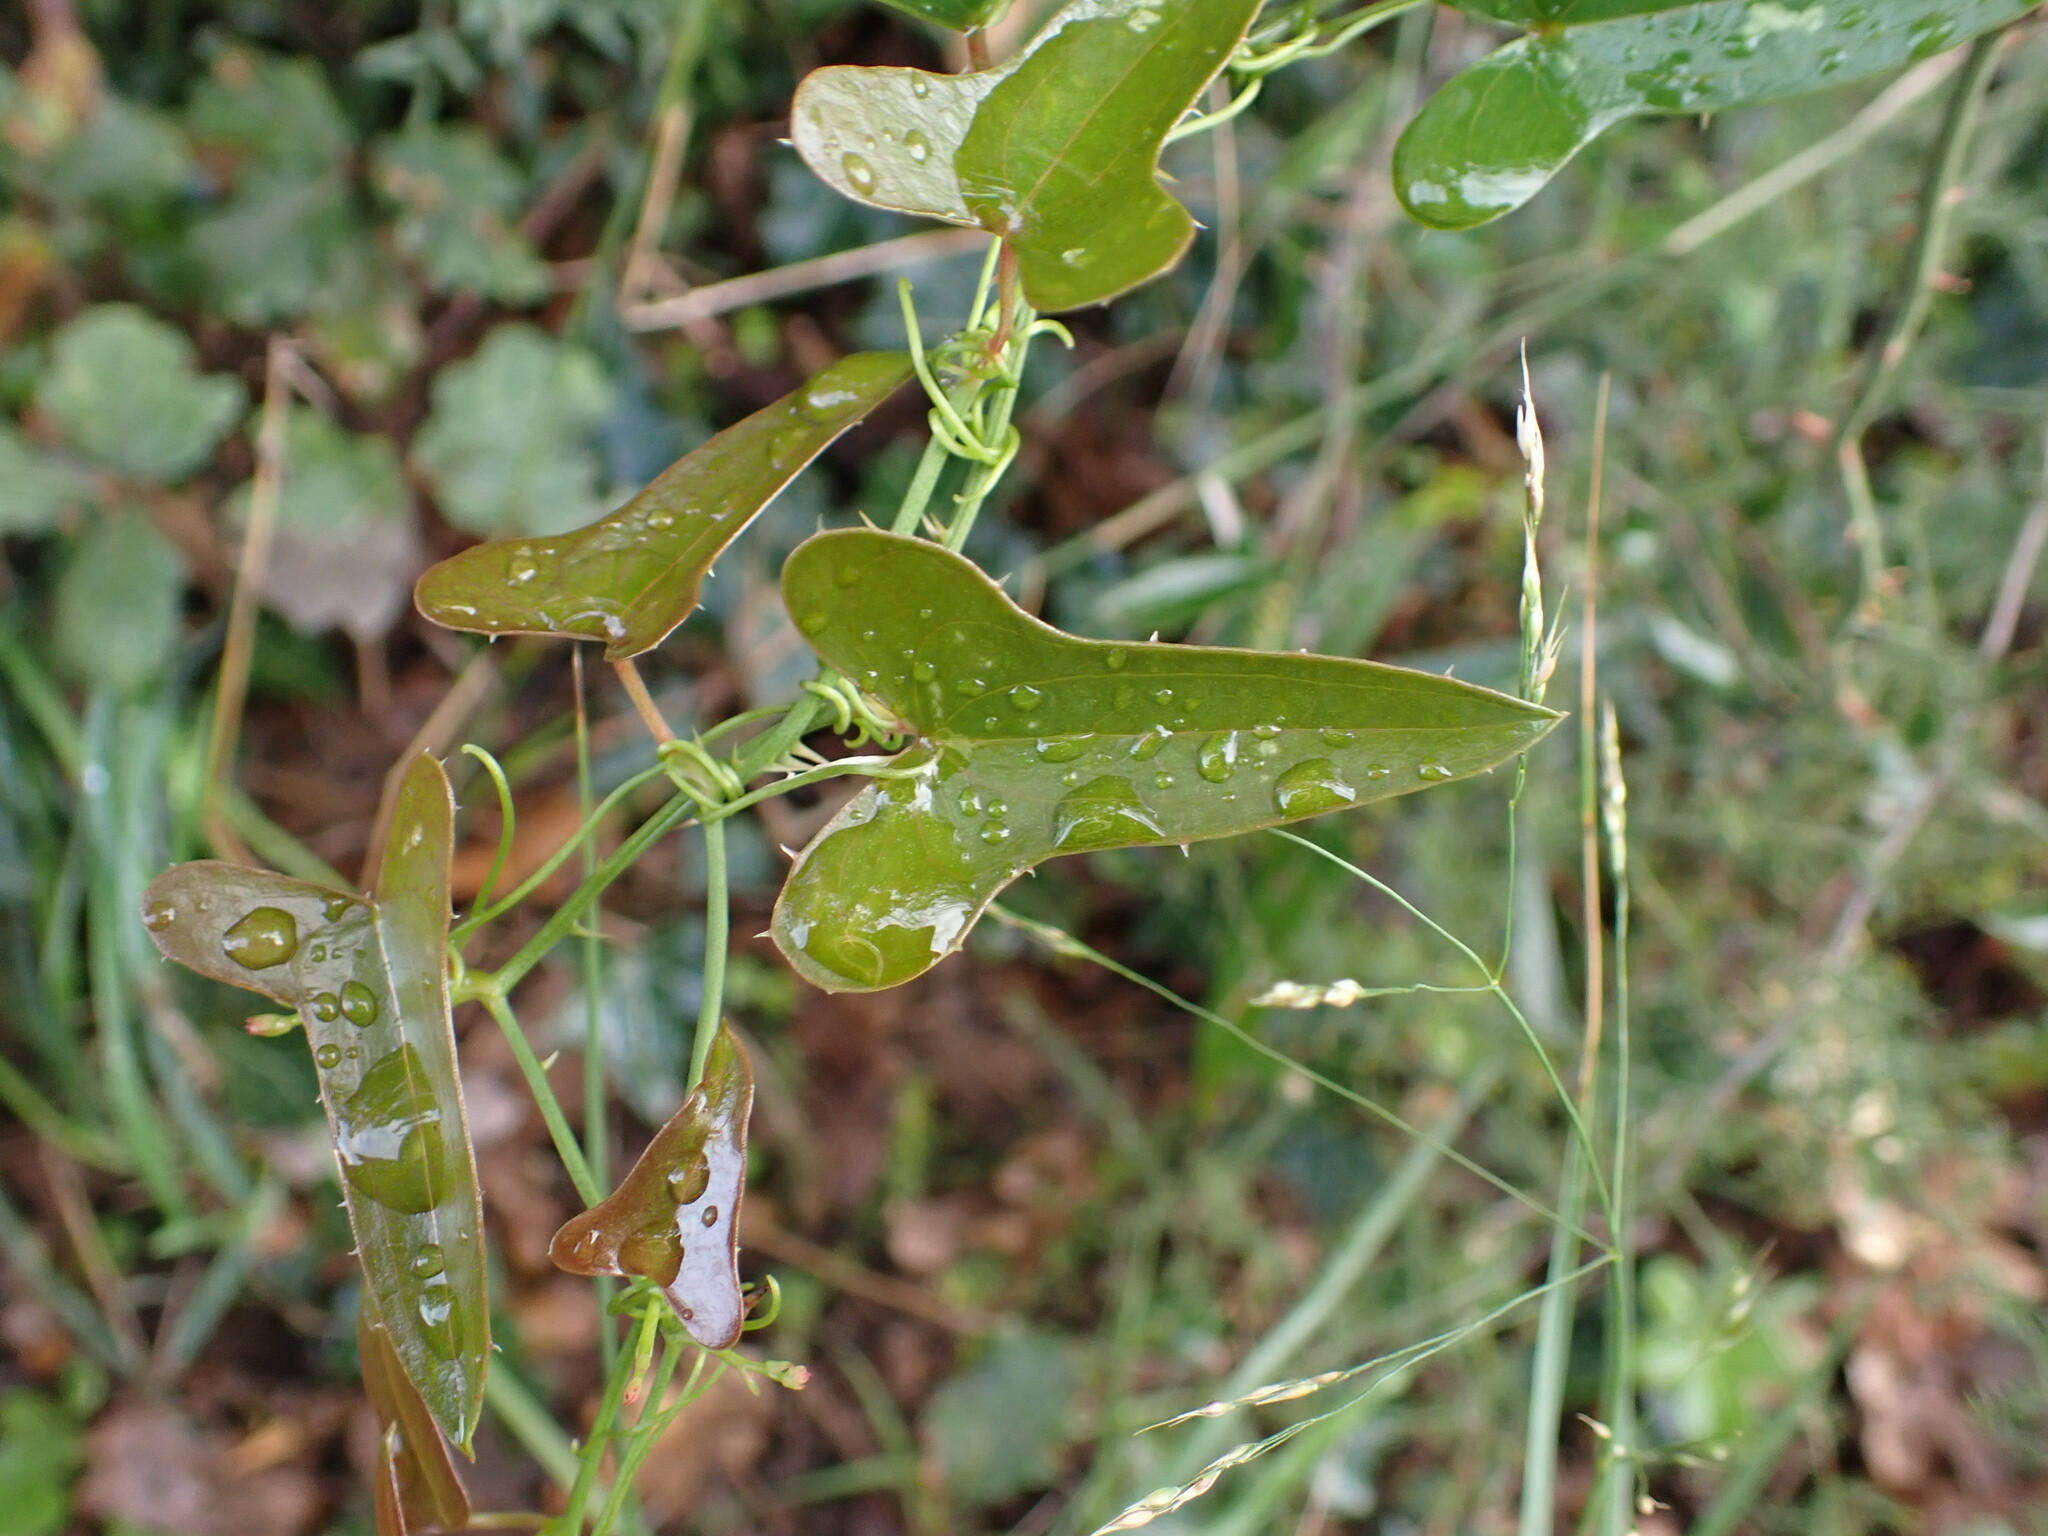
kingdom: Plantae
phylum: Tracheophyta
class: Liliopsida
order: Liliales
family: Smilacaceae
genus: Smilax
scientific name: Smilax aspera
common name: Common smilax
